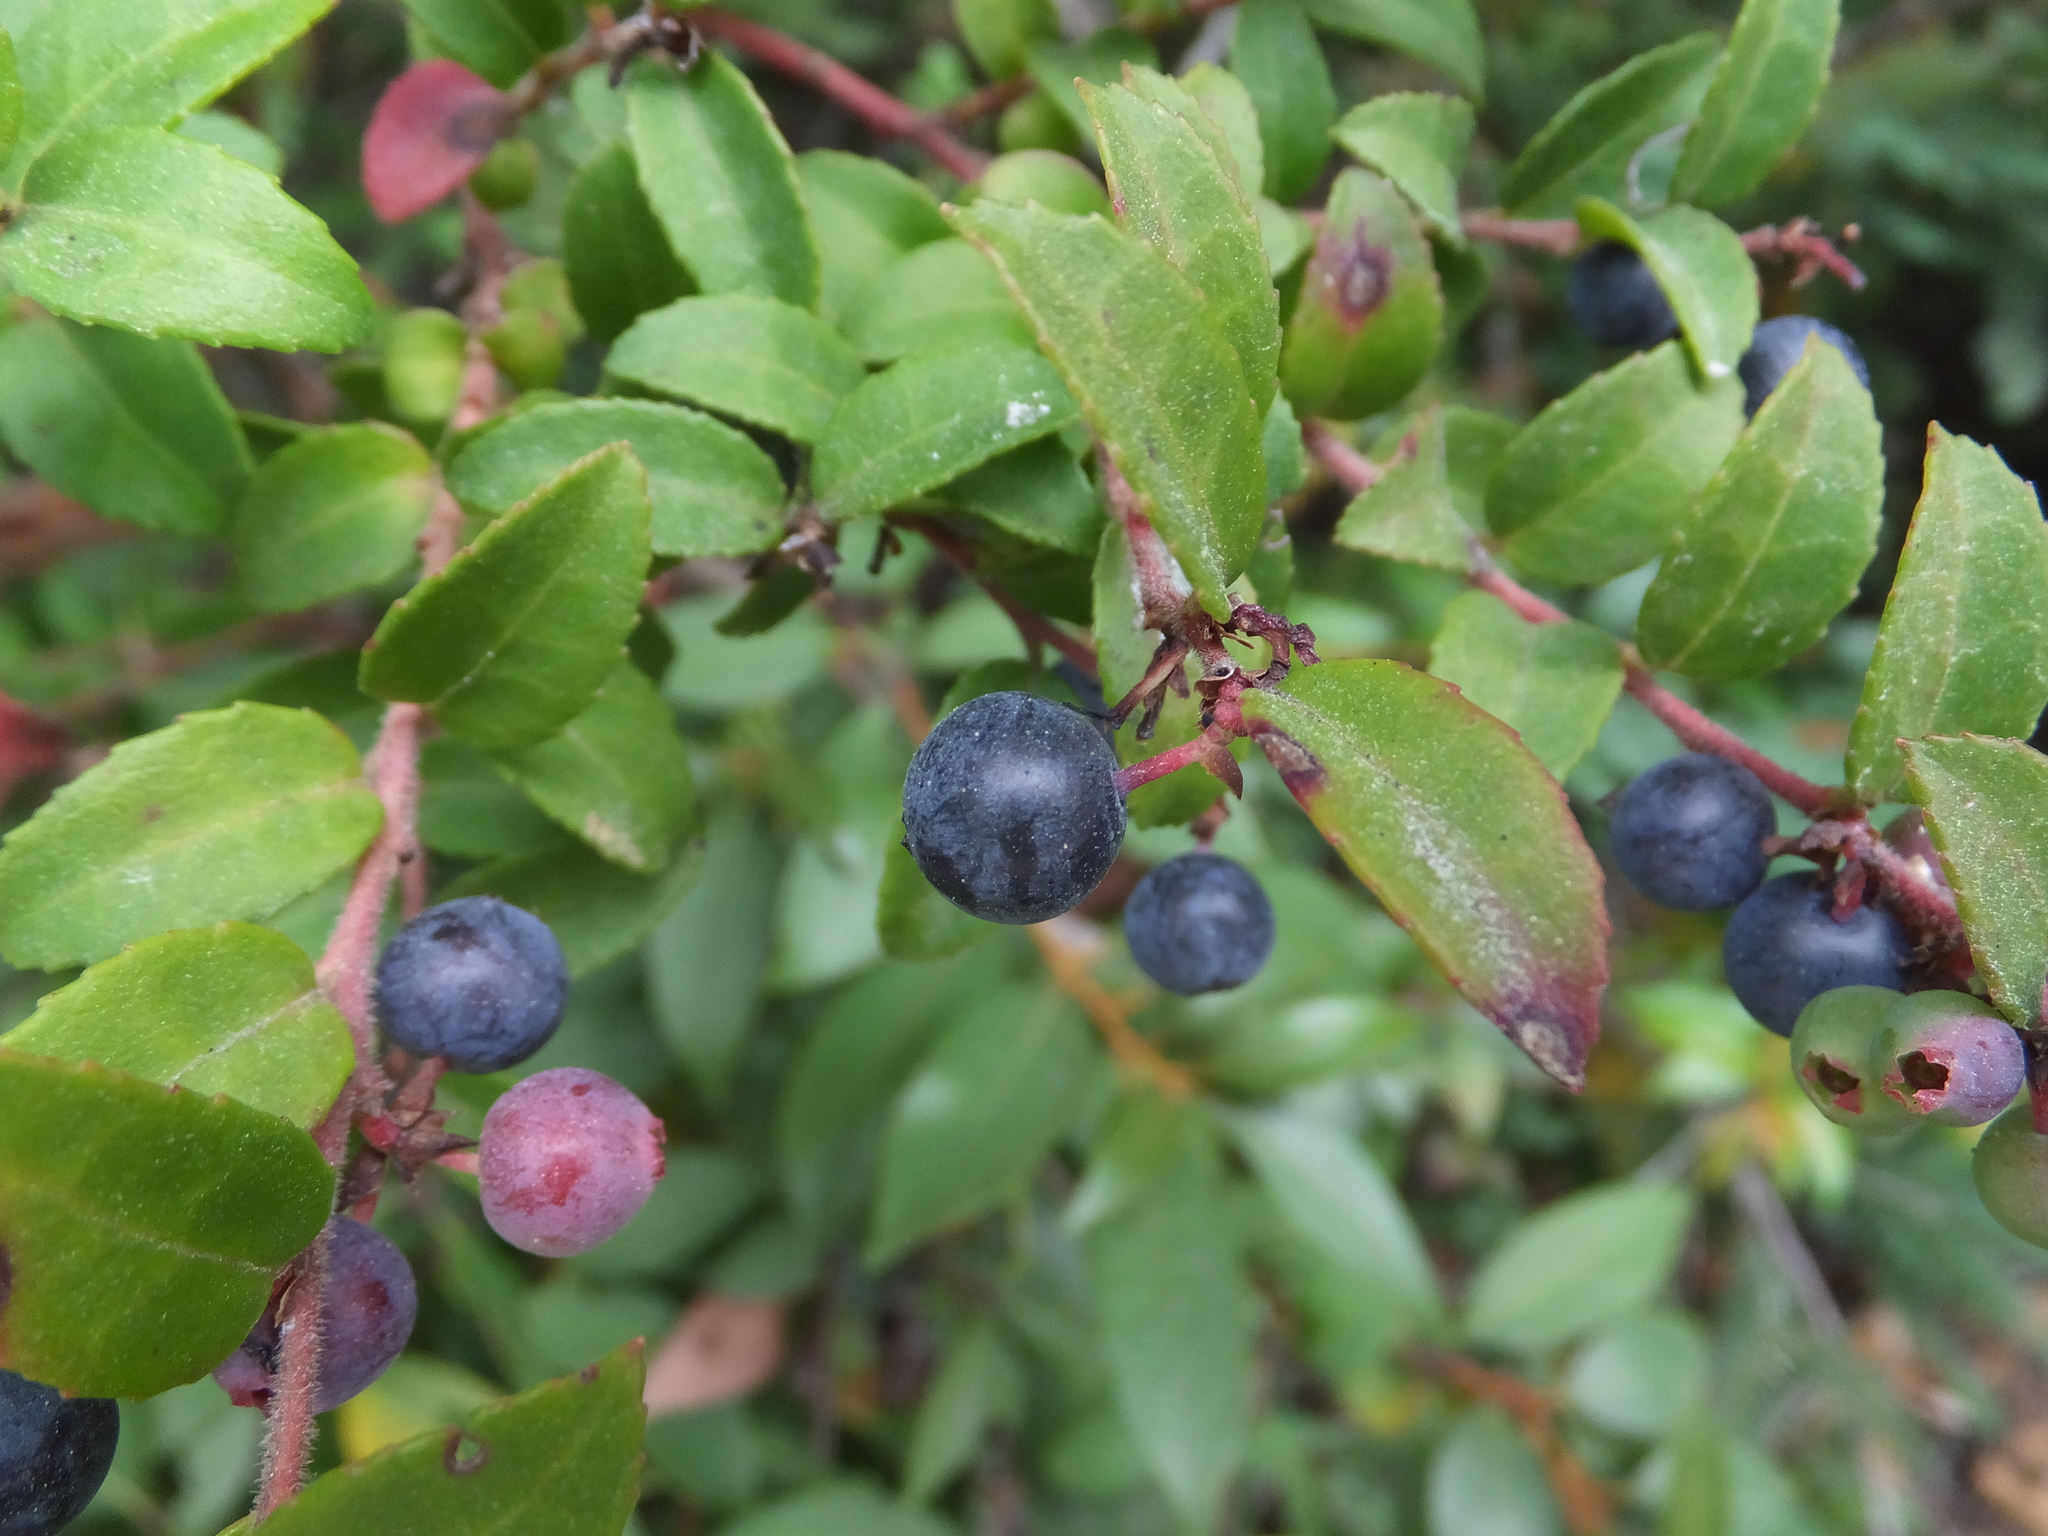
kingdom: Plantae
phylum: Tracheophyta
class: Magnoliopsida
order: Ericales
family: Ericaceae
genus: Vaccinium
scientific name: Vaccinium ovatum
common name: California-huckleberry
